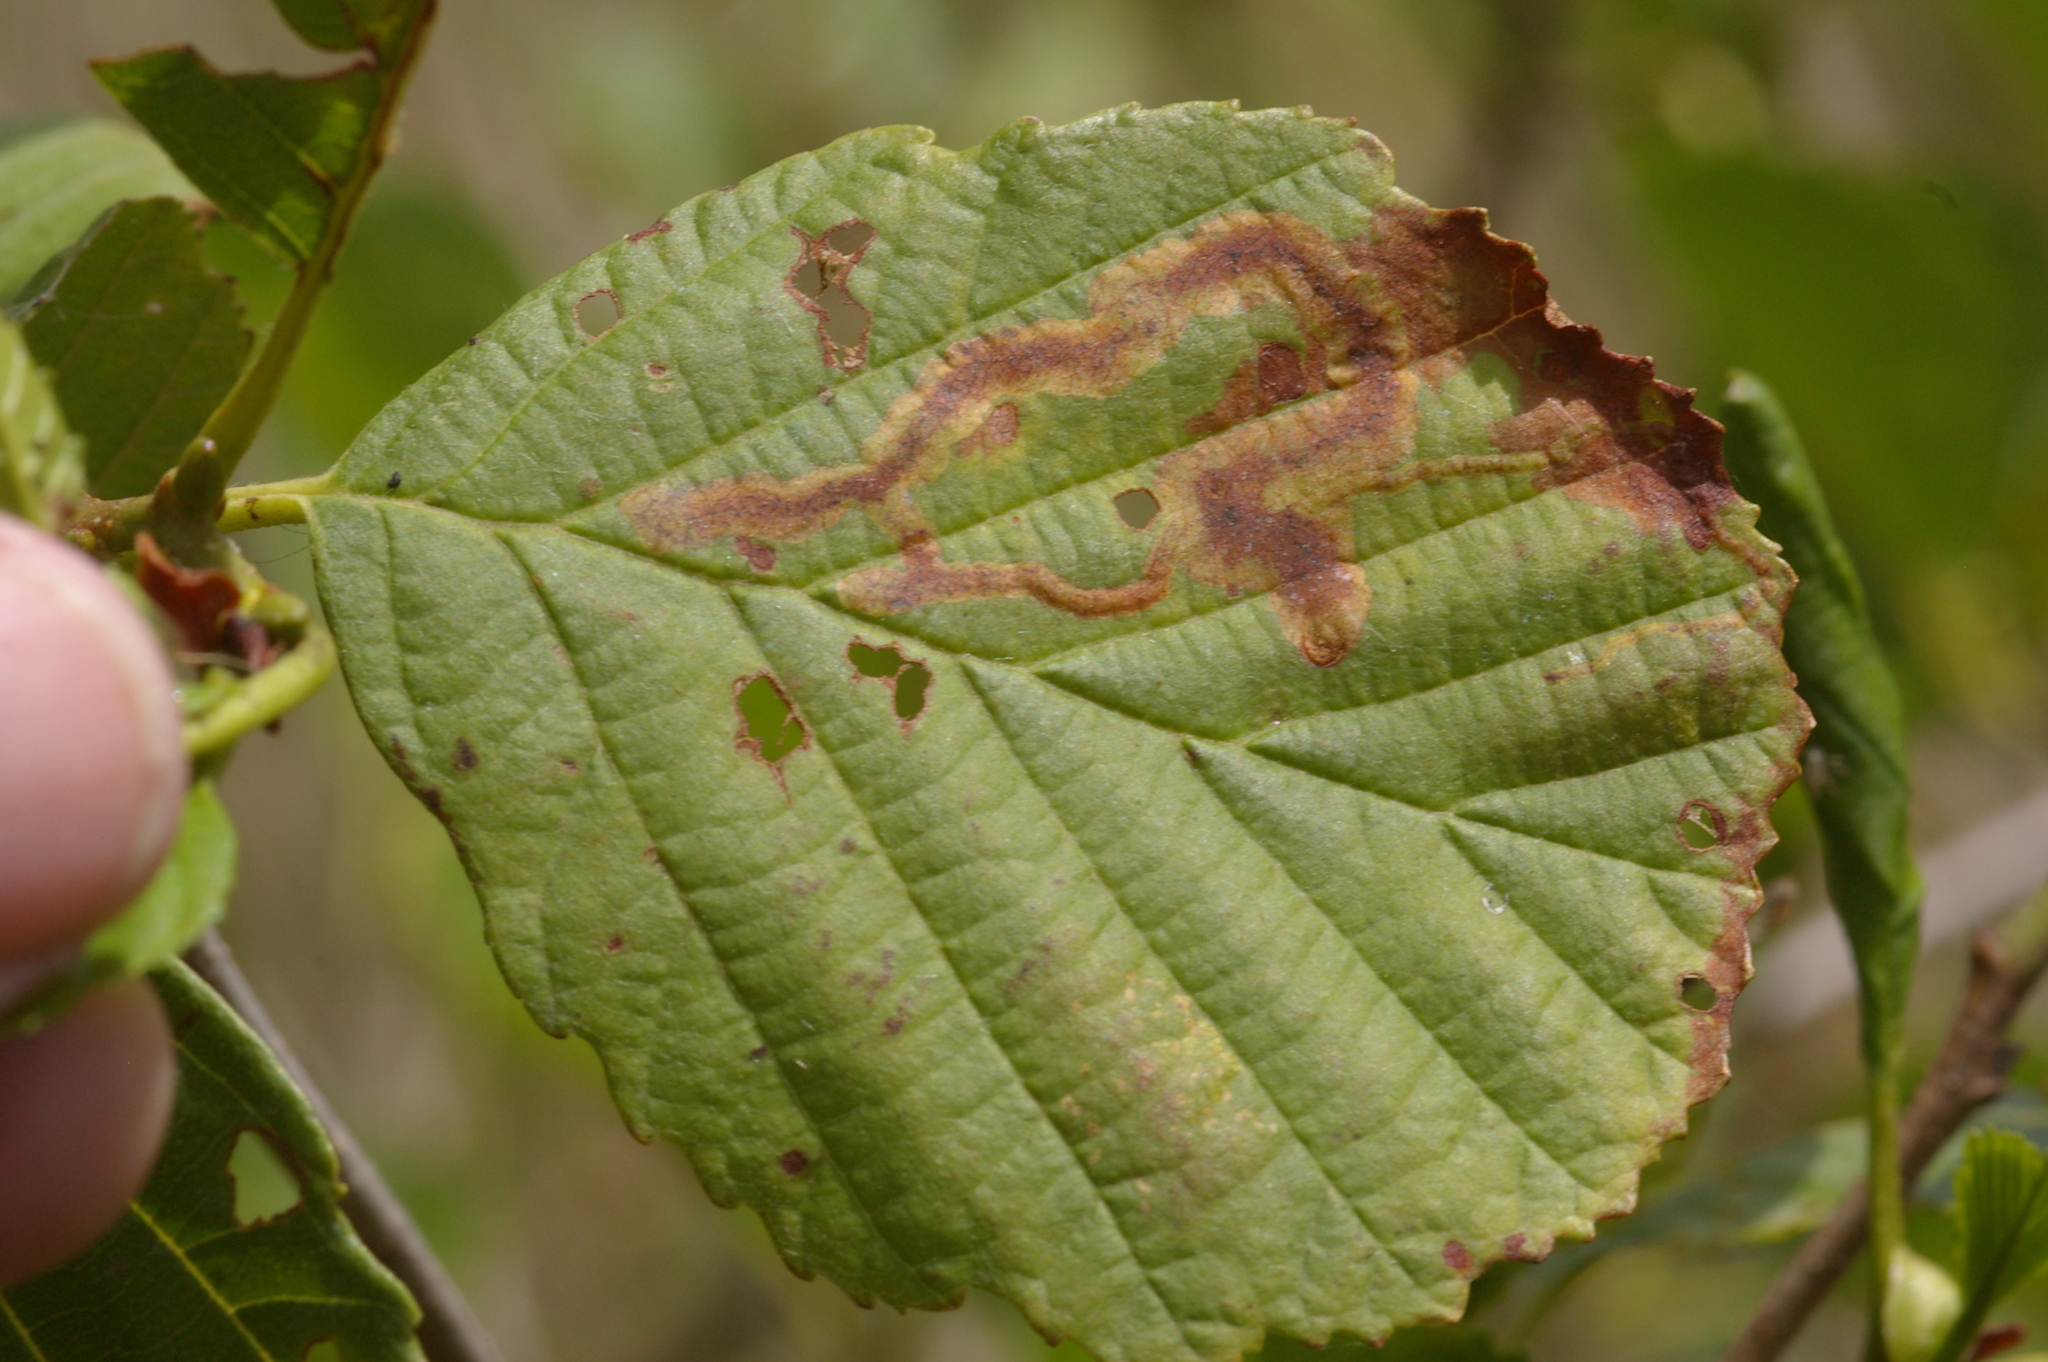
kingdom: Animalia
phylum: Arthropoda
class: Insecta
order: Diptera
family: Agromyzidae
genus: Agromyza
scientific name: Agromyza alnivora
